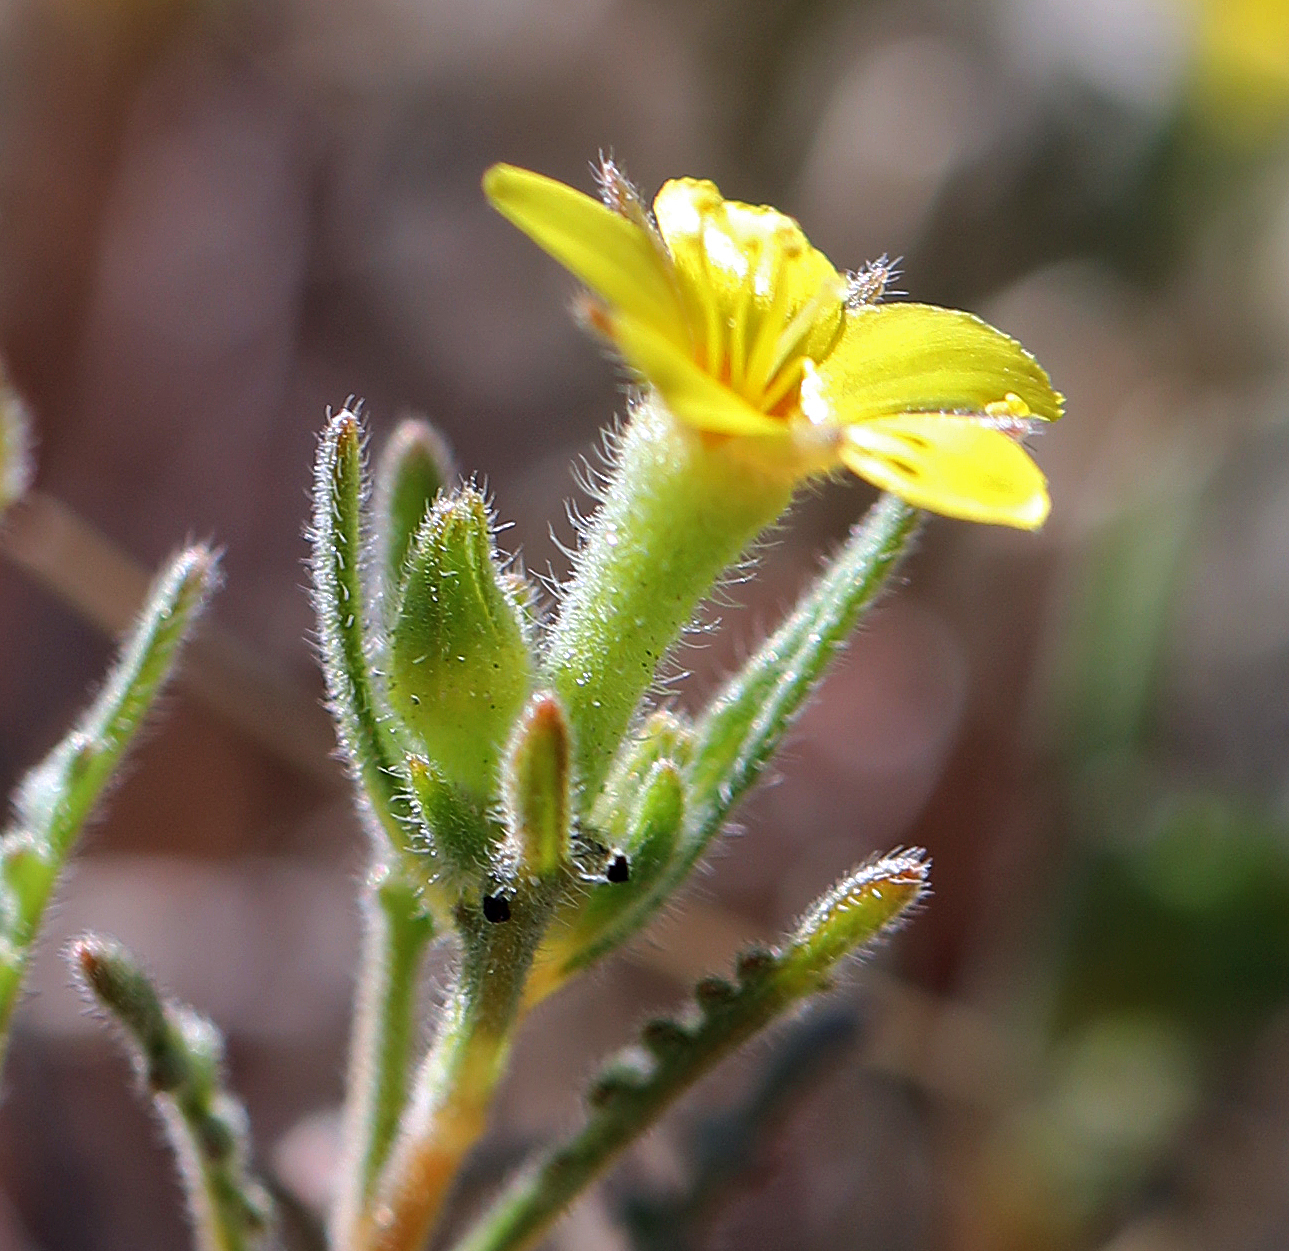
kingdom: Plantae
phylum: Tracheophyta
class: Magnoliopsida
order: Cornales
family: Loasaceae
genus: Mentzelia
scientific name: Mentzelia albicaulis
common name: White-stem blazingstar
